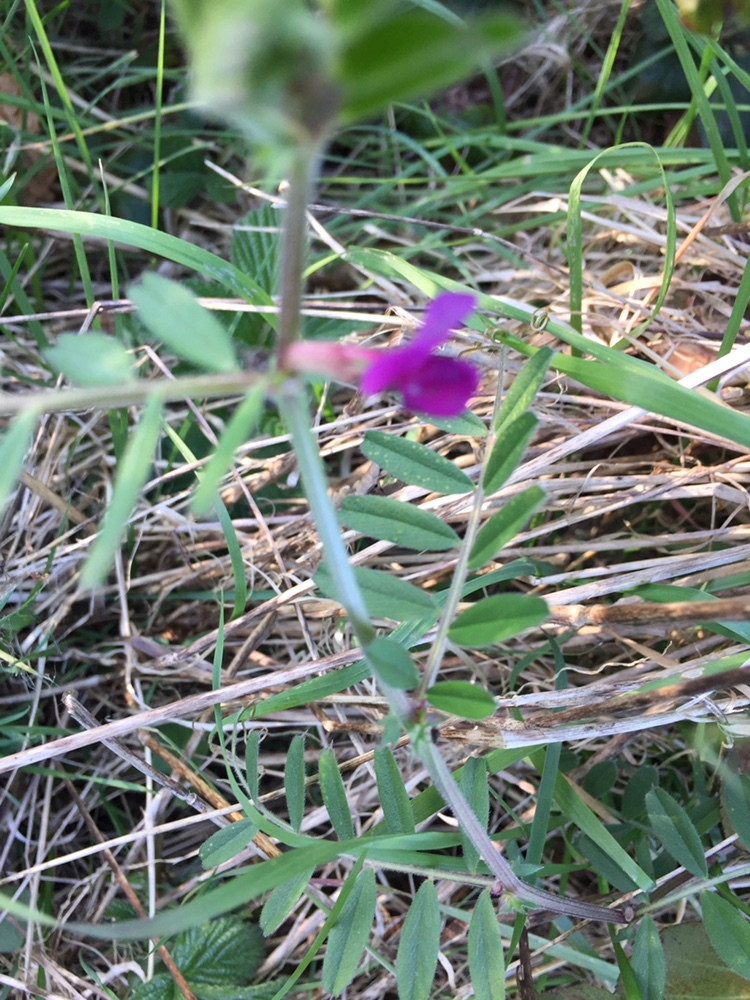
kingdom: Plantae
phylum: Tracheophyta
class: Magnoliopsida
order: Fabales
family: Fabaceae
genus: Vicia
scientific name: Vicia sativa
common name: Garden vetch
